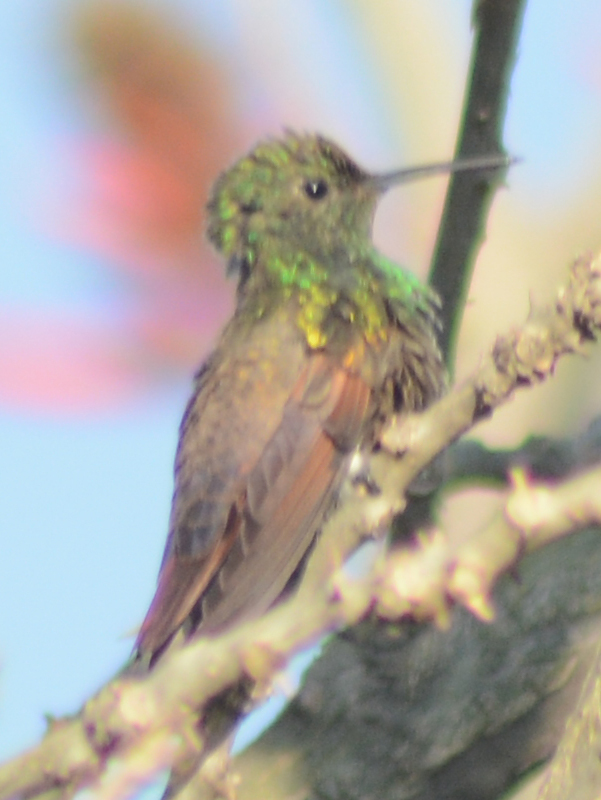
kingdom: Animalia
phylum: Chordata
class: Aves
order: Apodiformes
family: Trochilidae
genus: Saucerottia
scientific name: Saucerottia beryllina
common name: Berylline hummingbird
